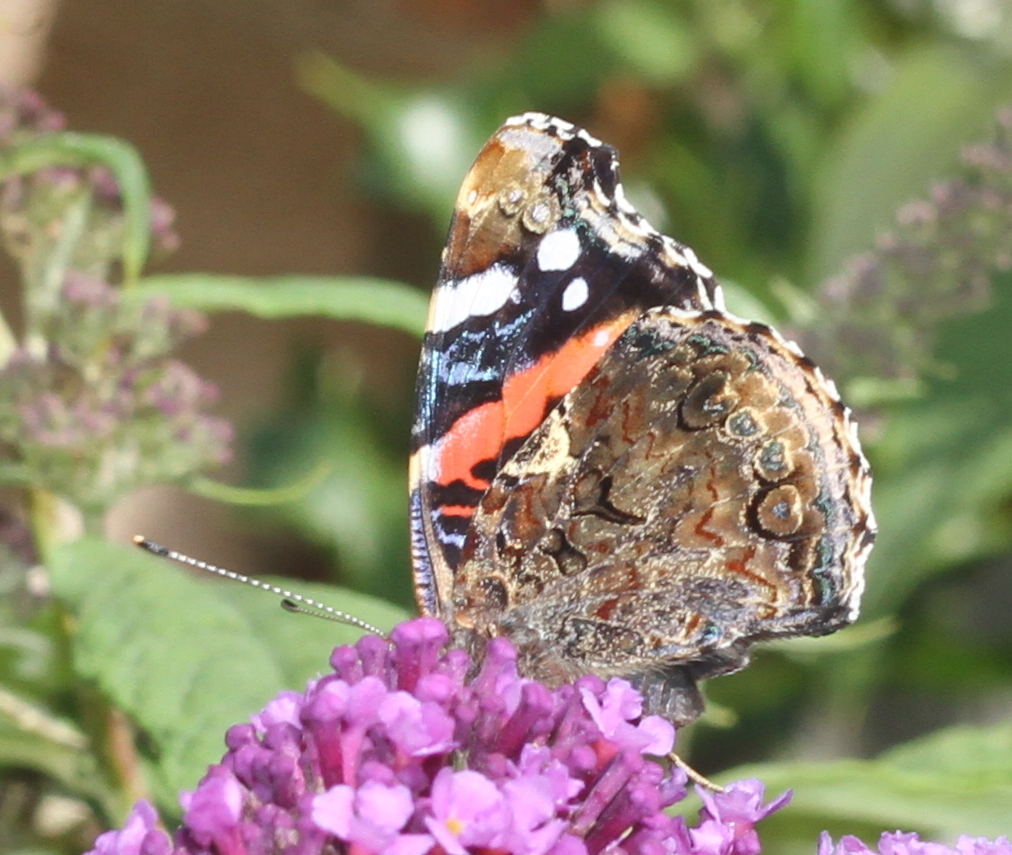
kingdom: Animalia
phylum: Arthropoda
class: Insecta
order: Lepidoptera
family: Nymphalidae
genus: Vanessa
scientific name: Vanessa atalanta
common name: Red admiral
